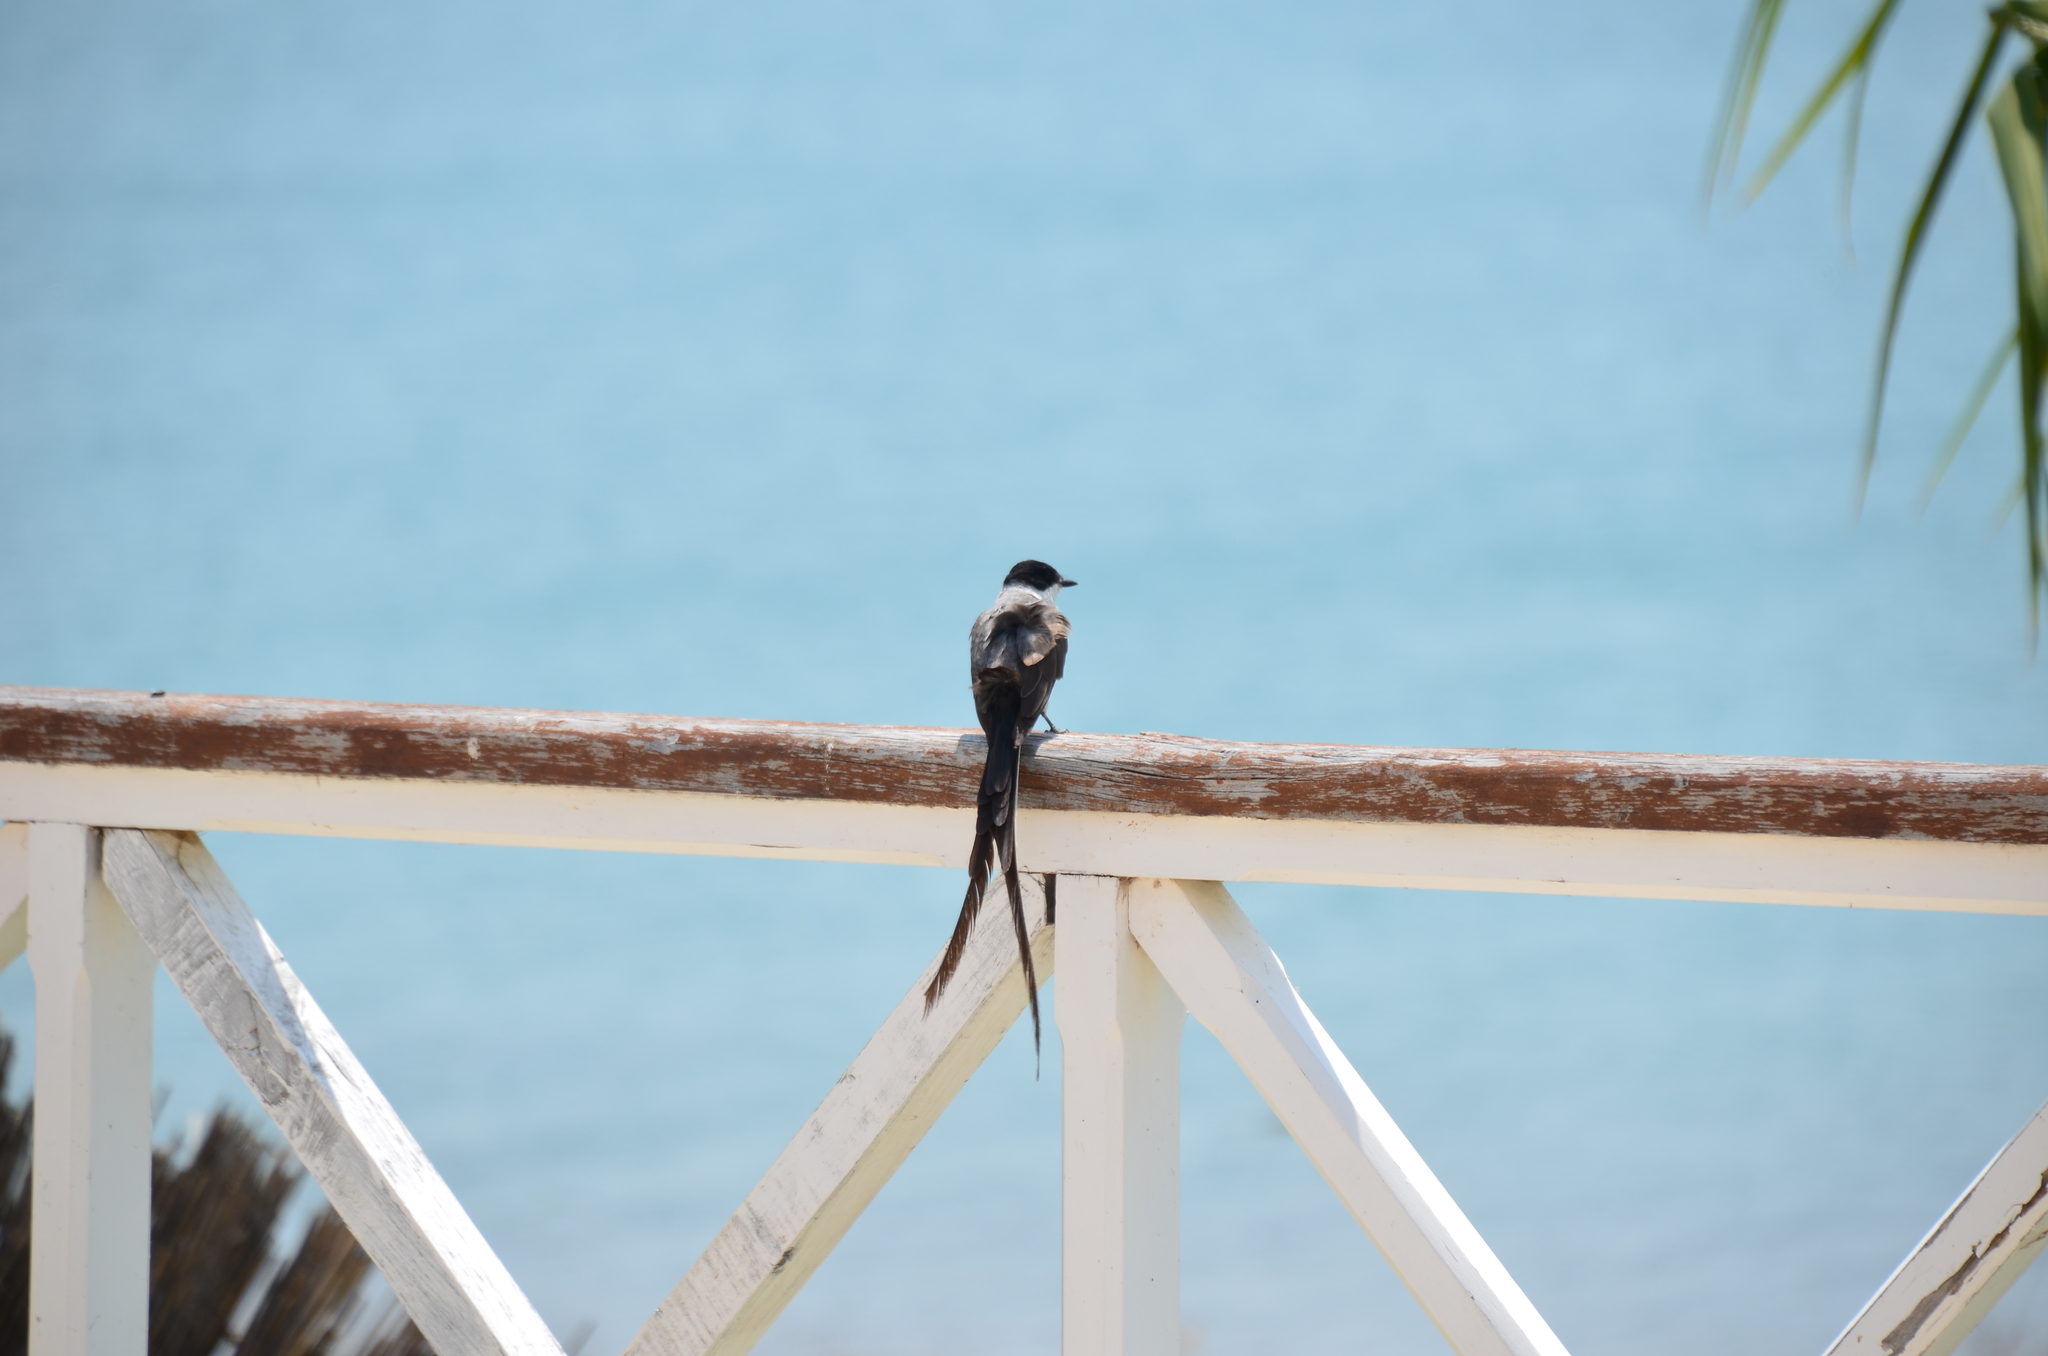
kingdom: Animalia
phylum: Chordata
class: Aves
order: Passeriformes
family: Tyrannidae
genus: Tyrannus
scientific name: Tyrannus savana
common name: Fork-tailed flycatcher
